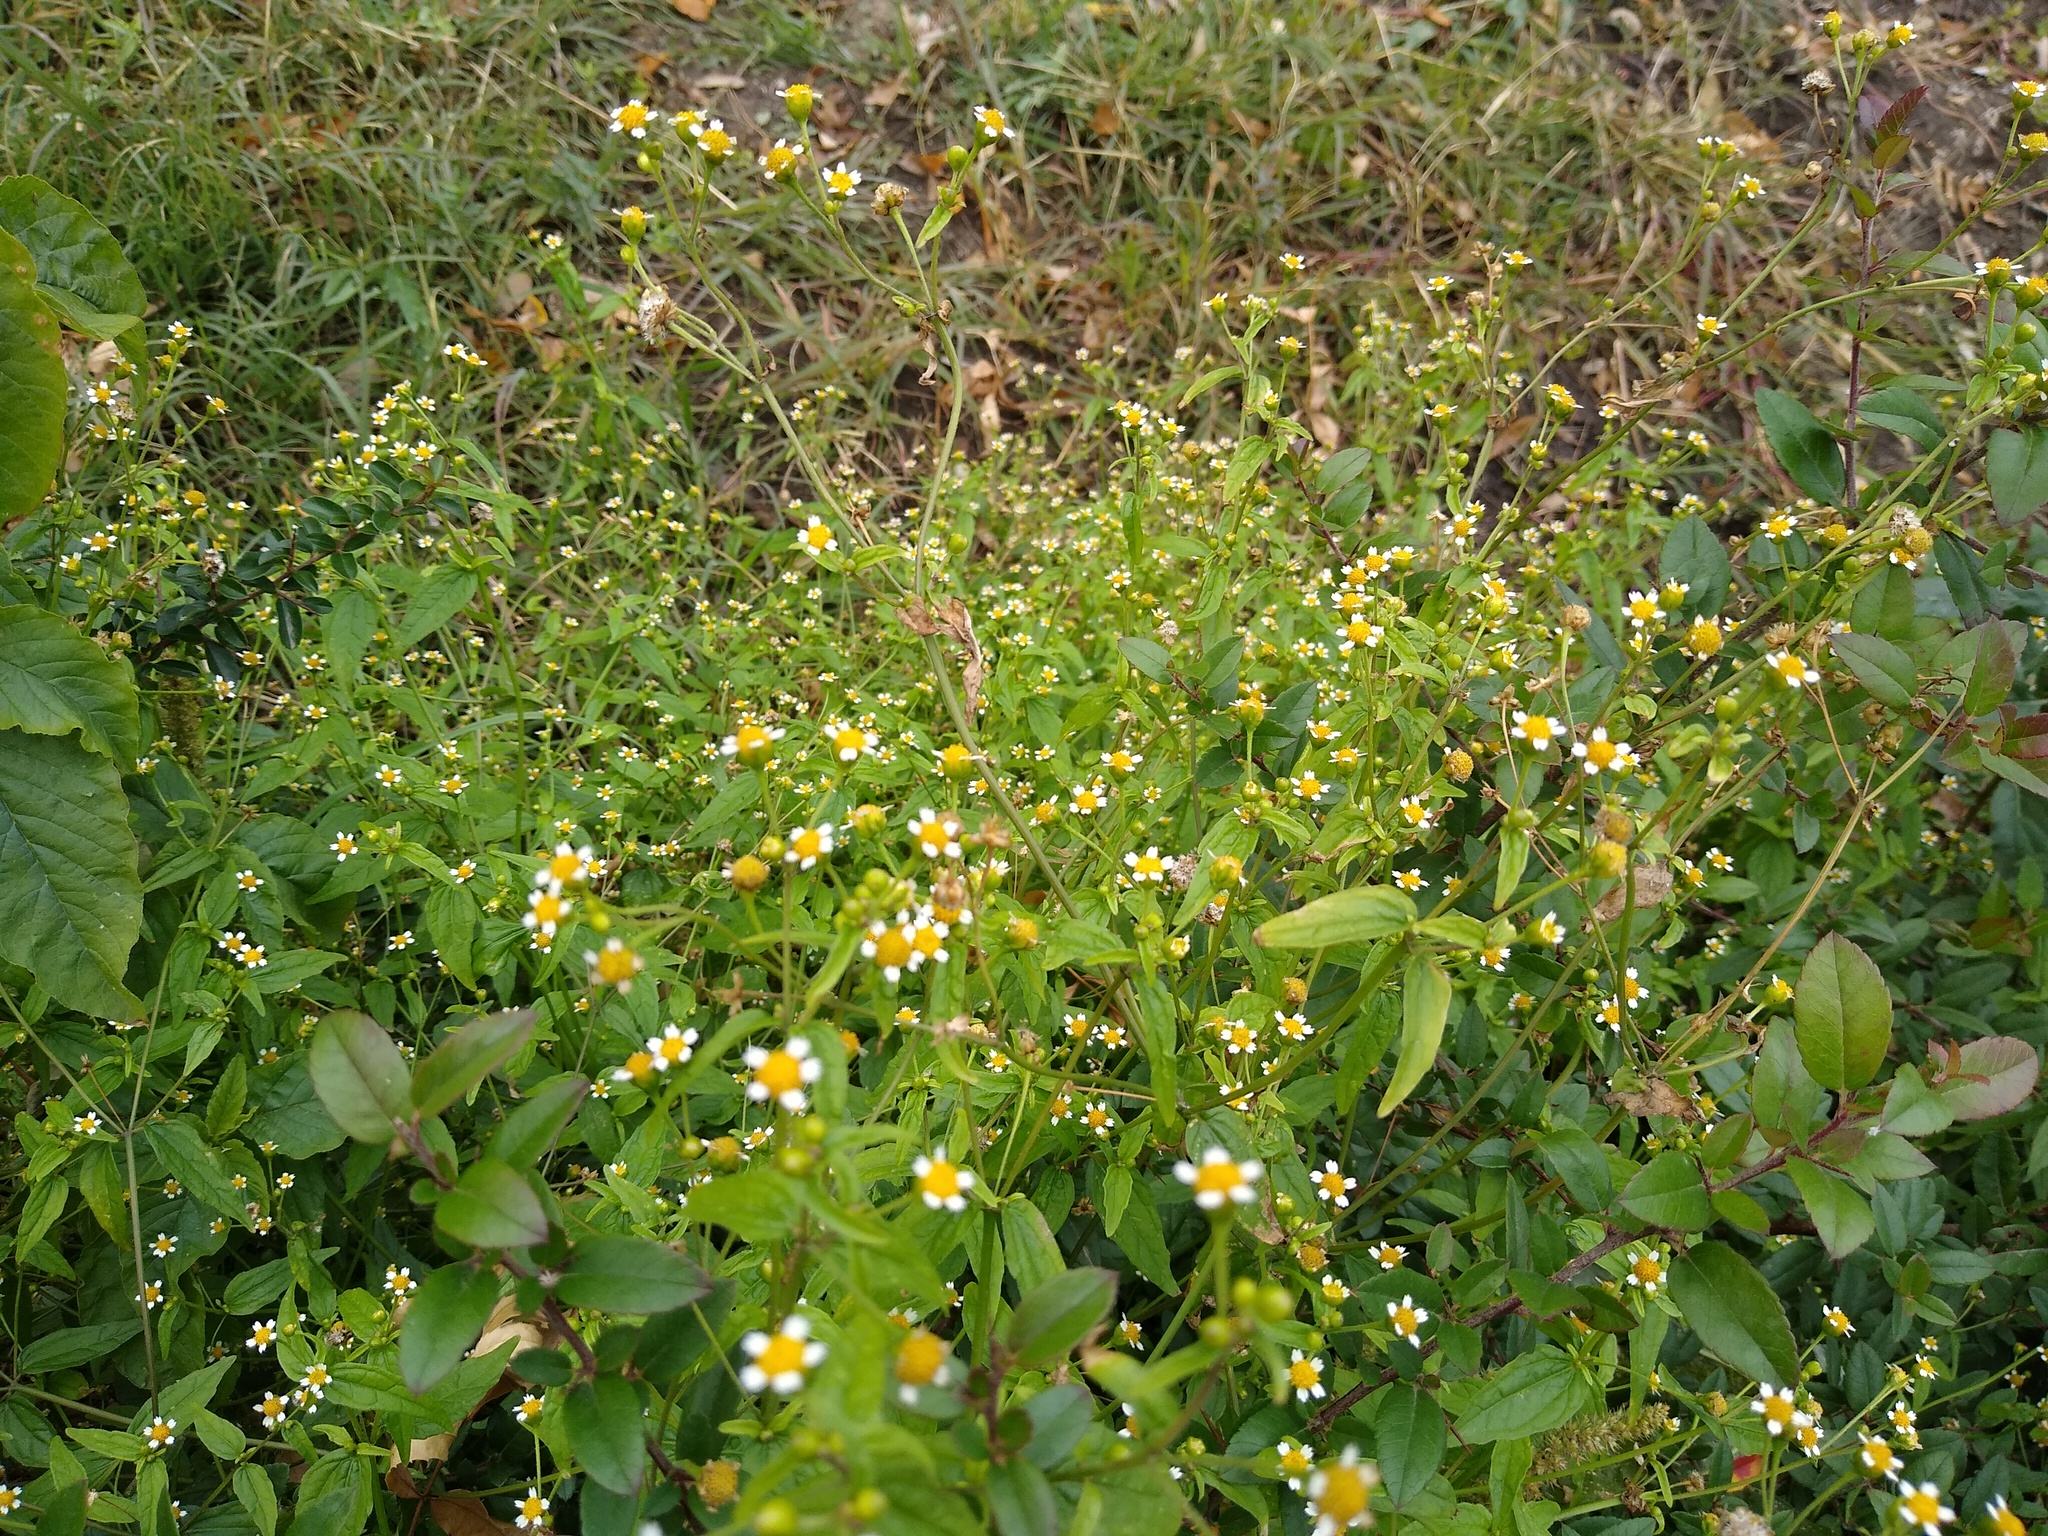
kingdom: Plantae
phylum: Tracheophyta
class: Magnoliopsida
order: Asterales
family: Asteraceae
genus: Galinsoga
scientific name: Galinsoga parviflora
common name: Gallant soldier
